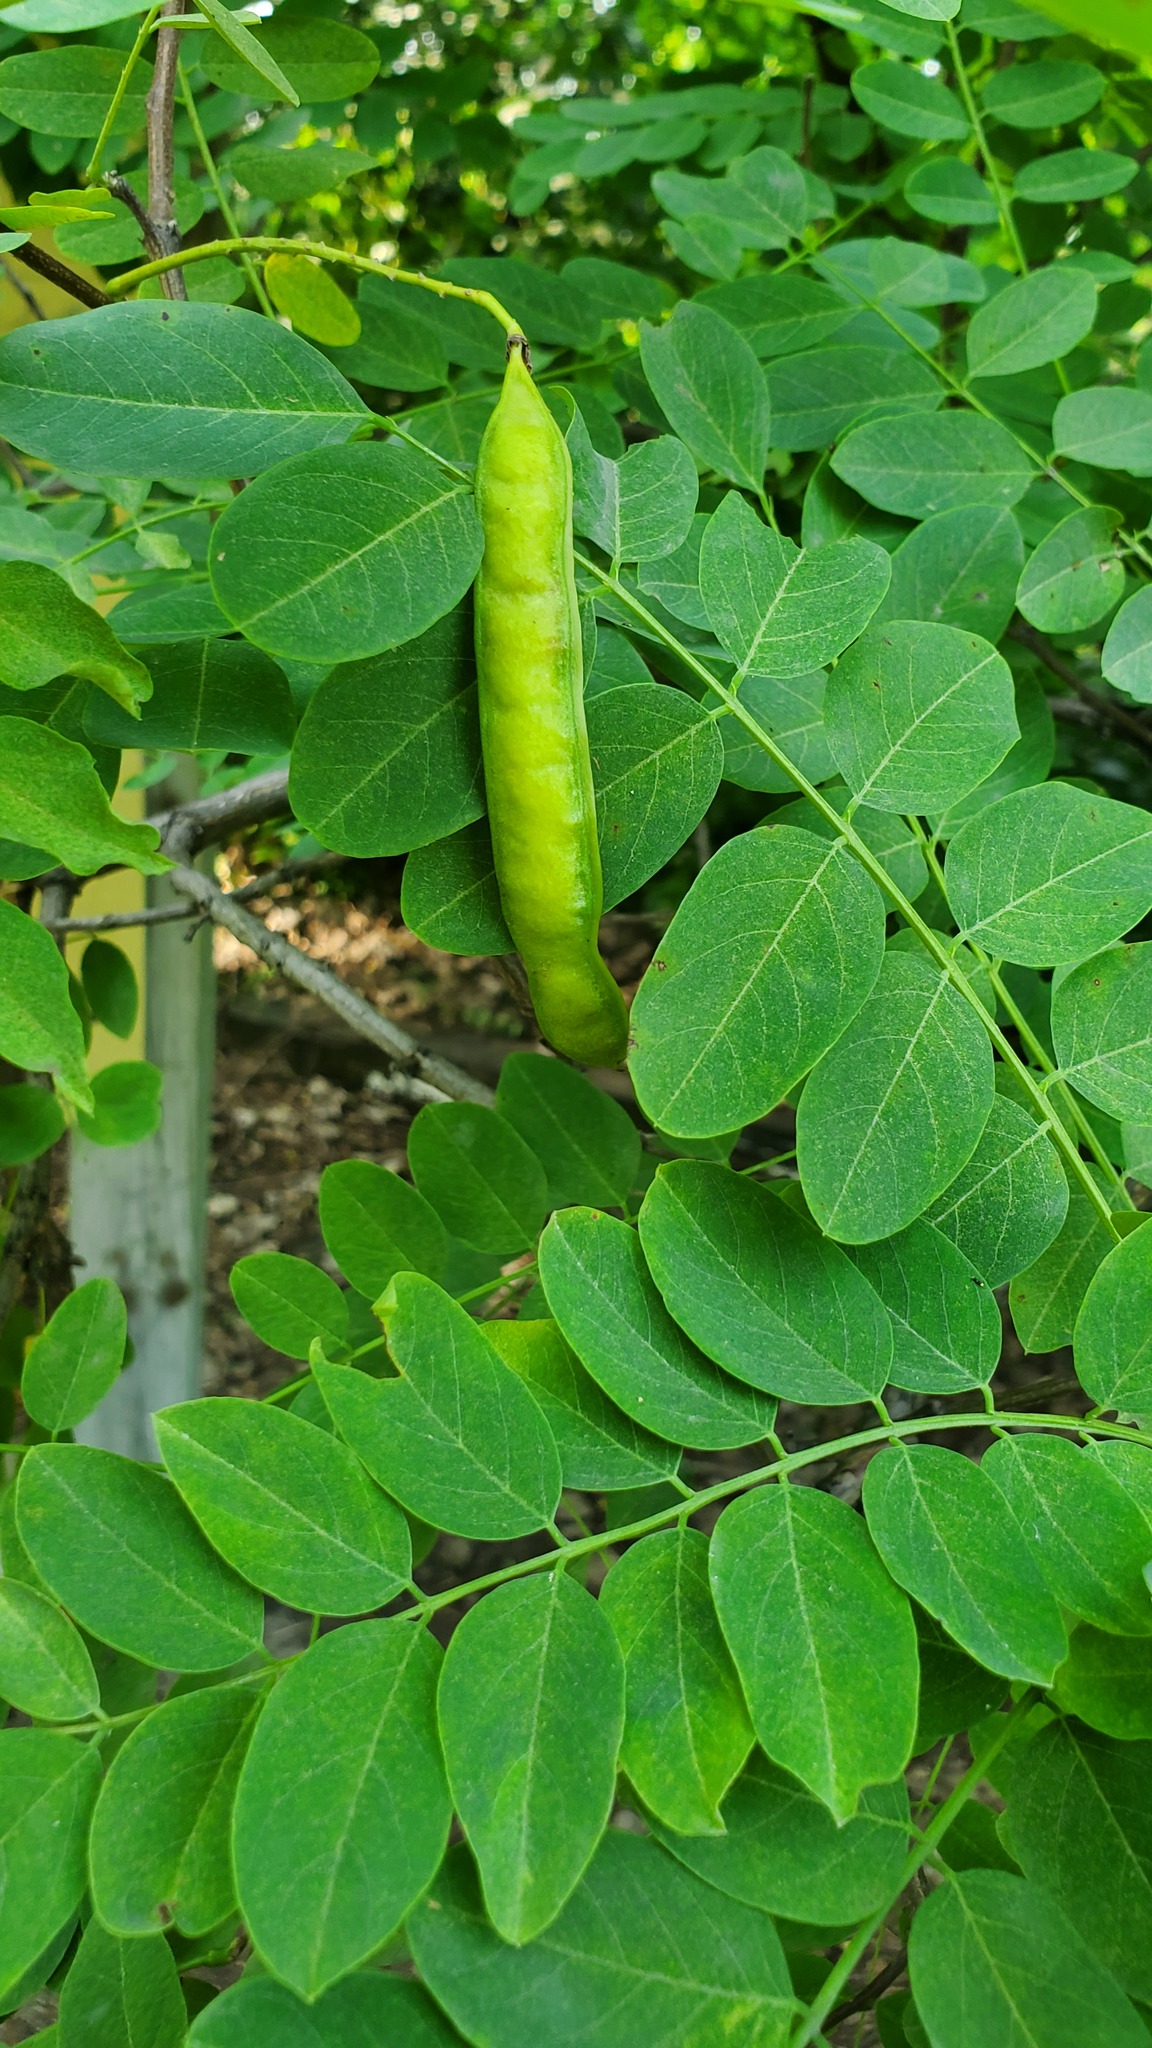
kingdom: Plantae
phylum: Tracheophyta
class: Magnoliopsida
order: Fabales
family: Fabaceae
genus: Robinia
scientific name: Robinia pseudoacacia
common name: Black locust
